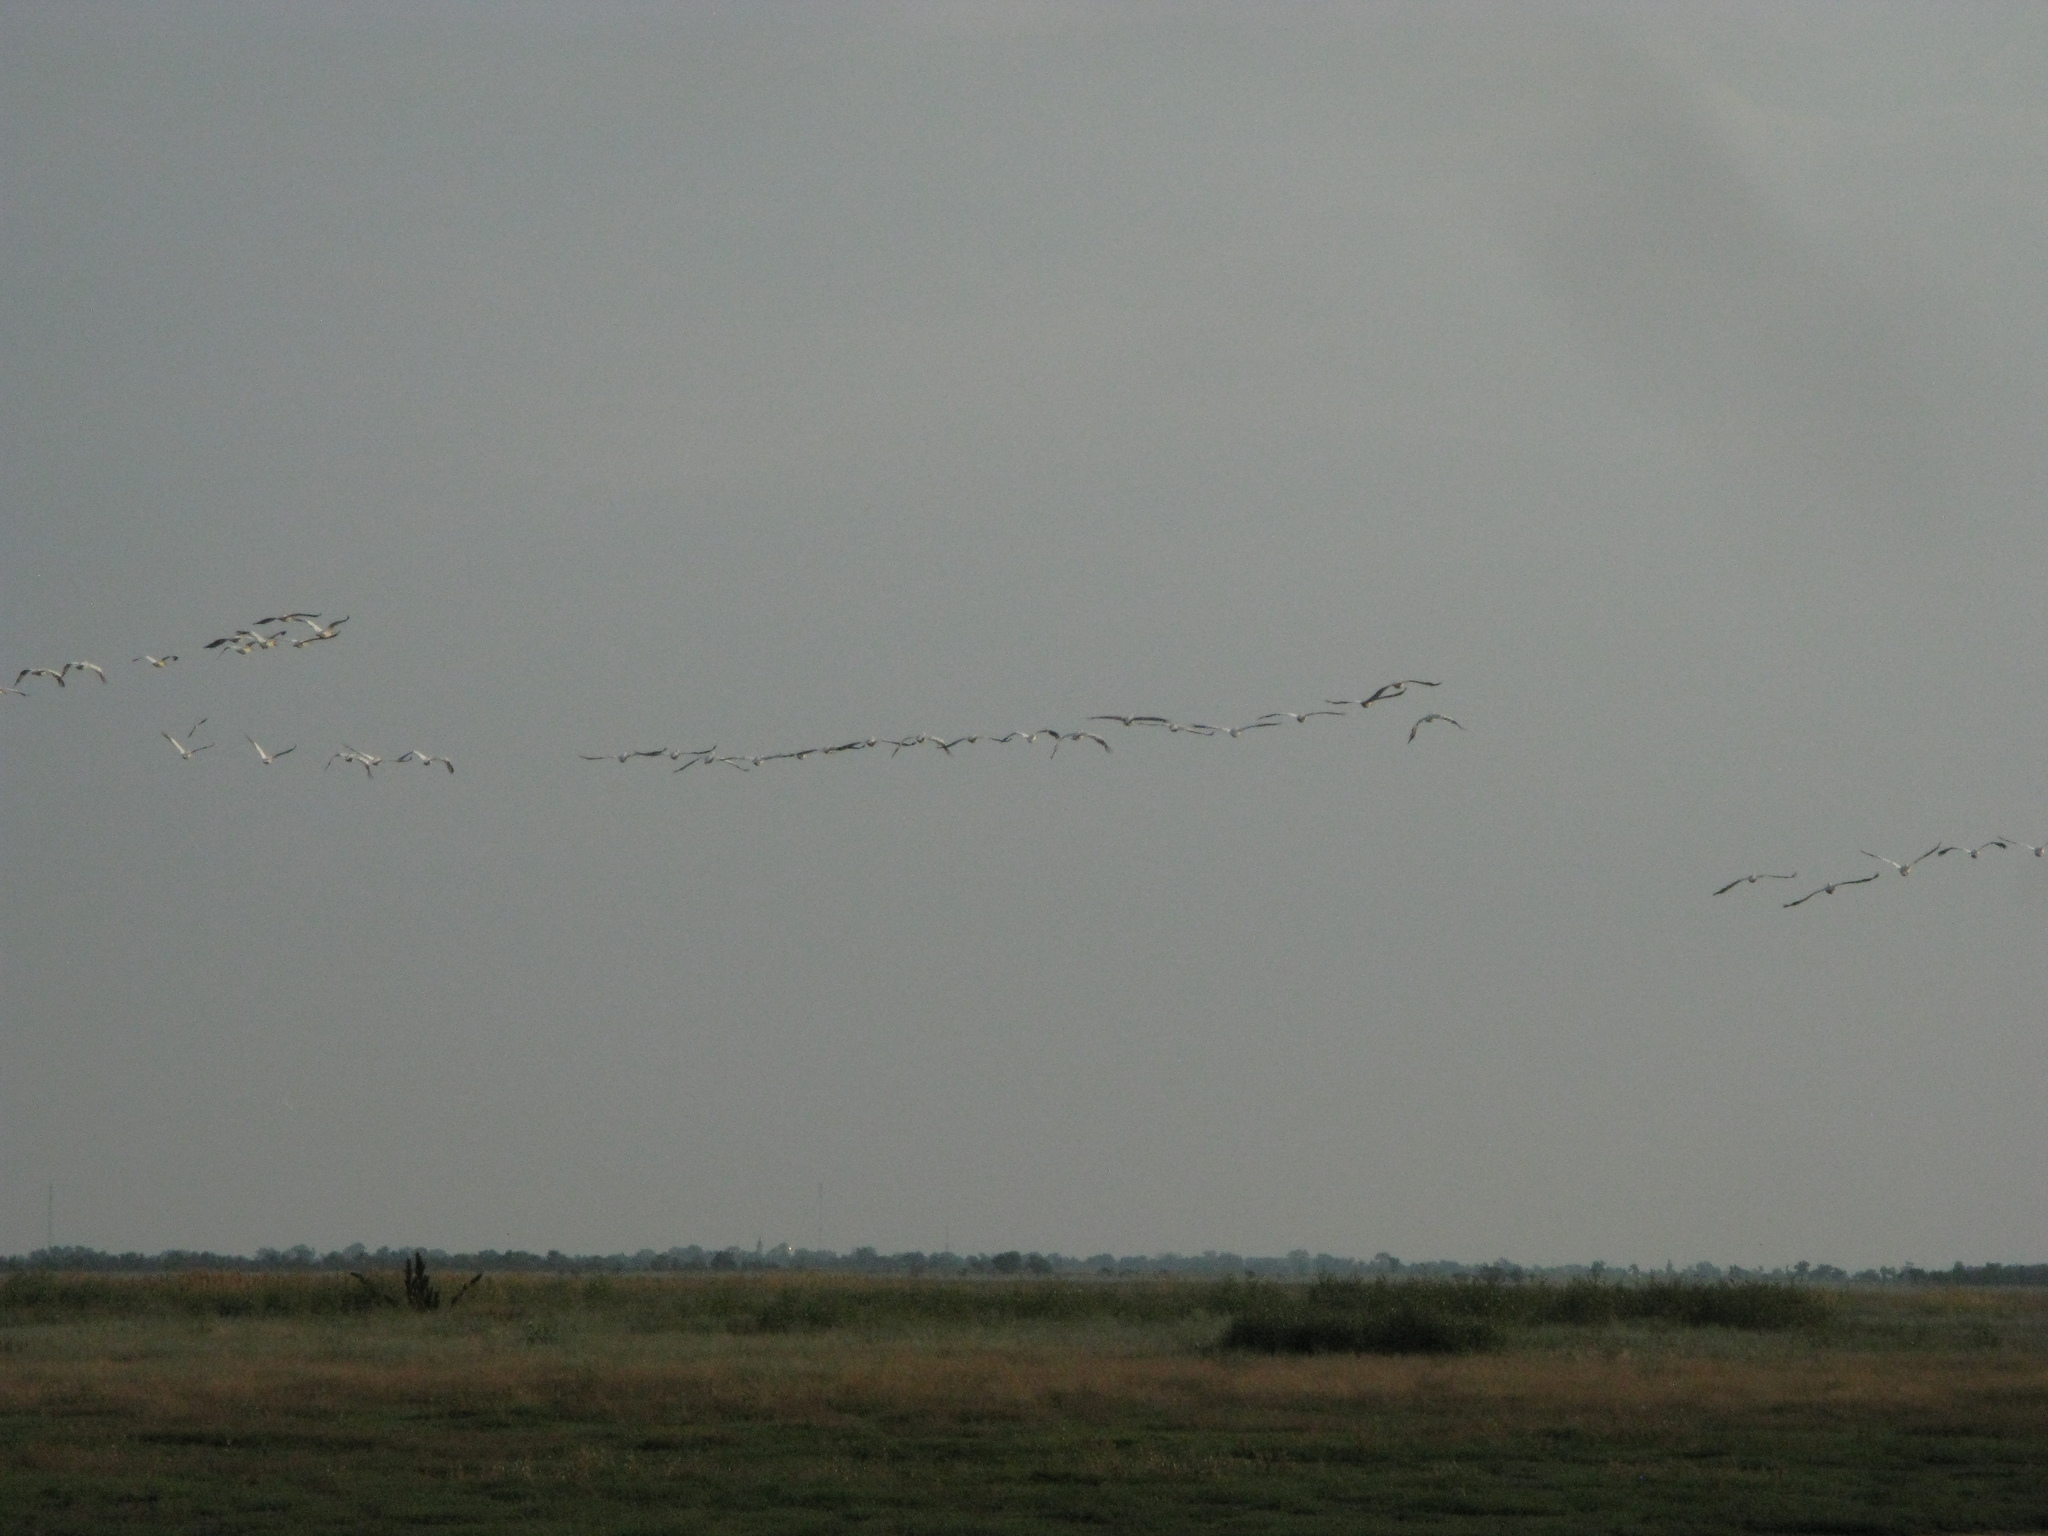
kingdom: Animalia
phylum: Chordata
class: Aves
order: Pelecaniformes
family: Pelecanidae
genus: Pelecanus
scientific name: Pelecanus onocrotalus
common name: Great white pelican
